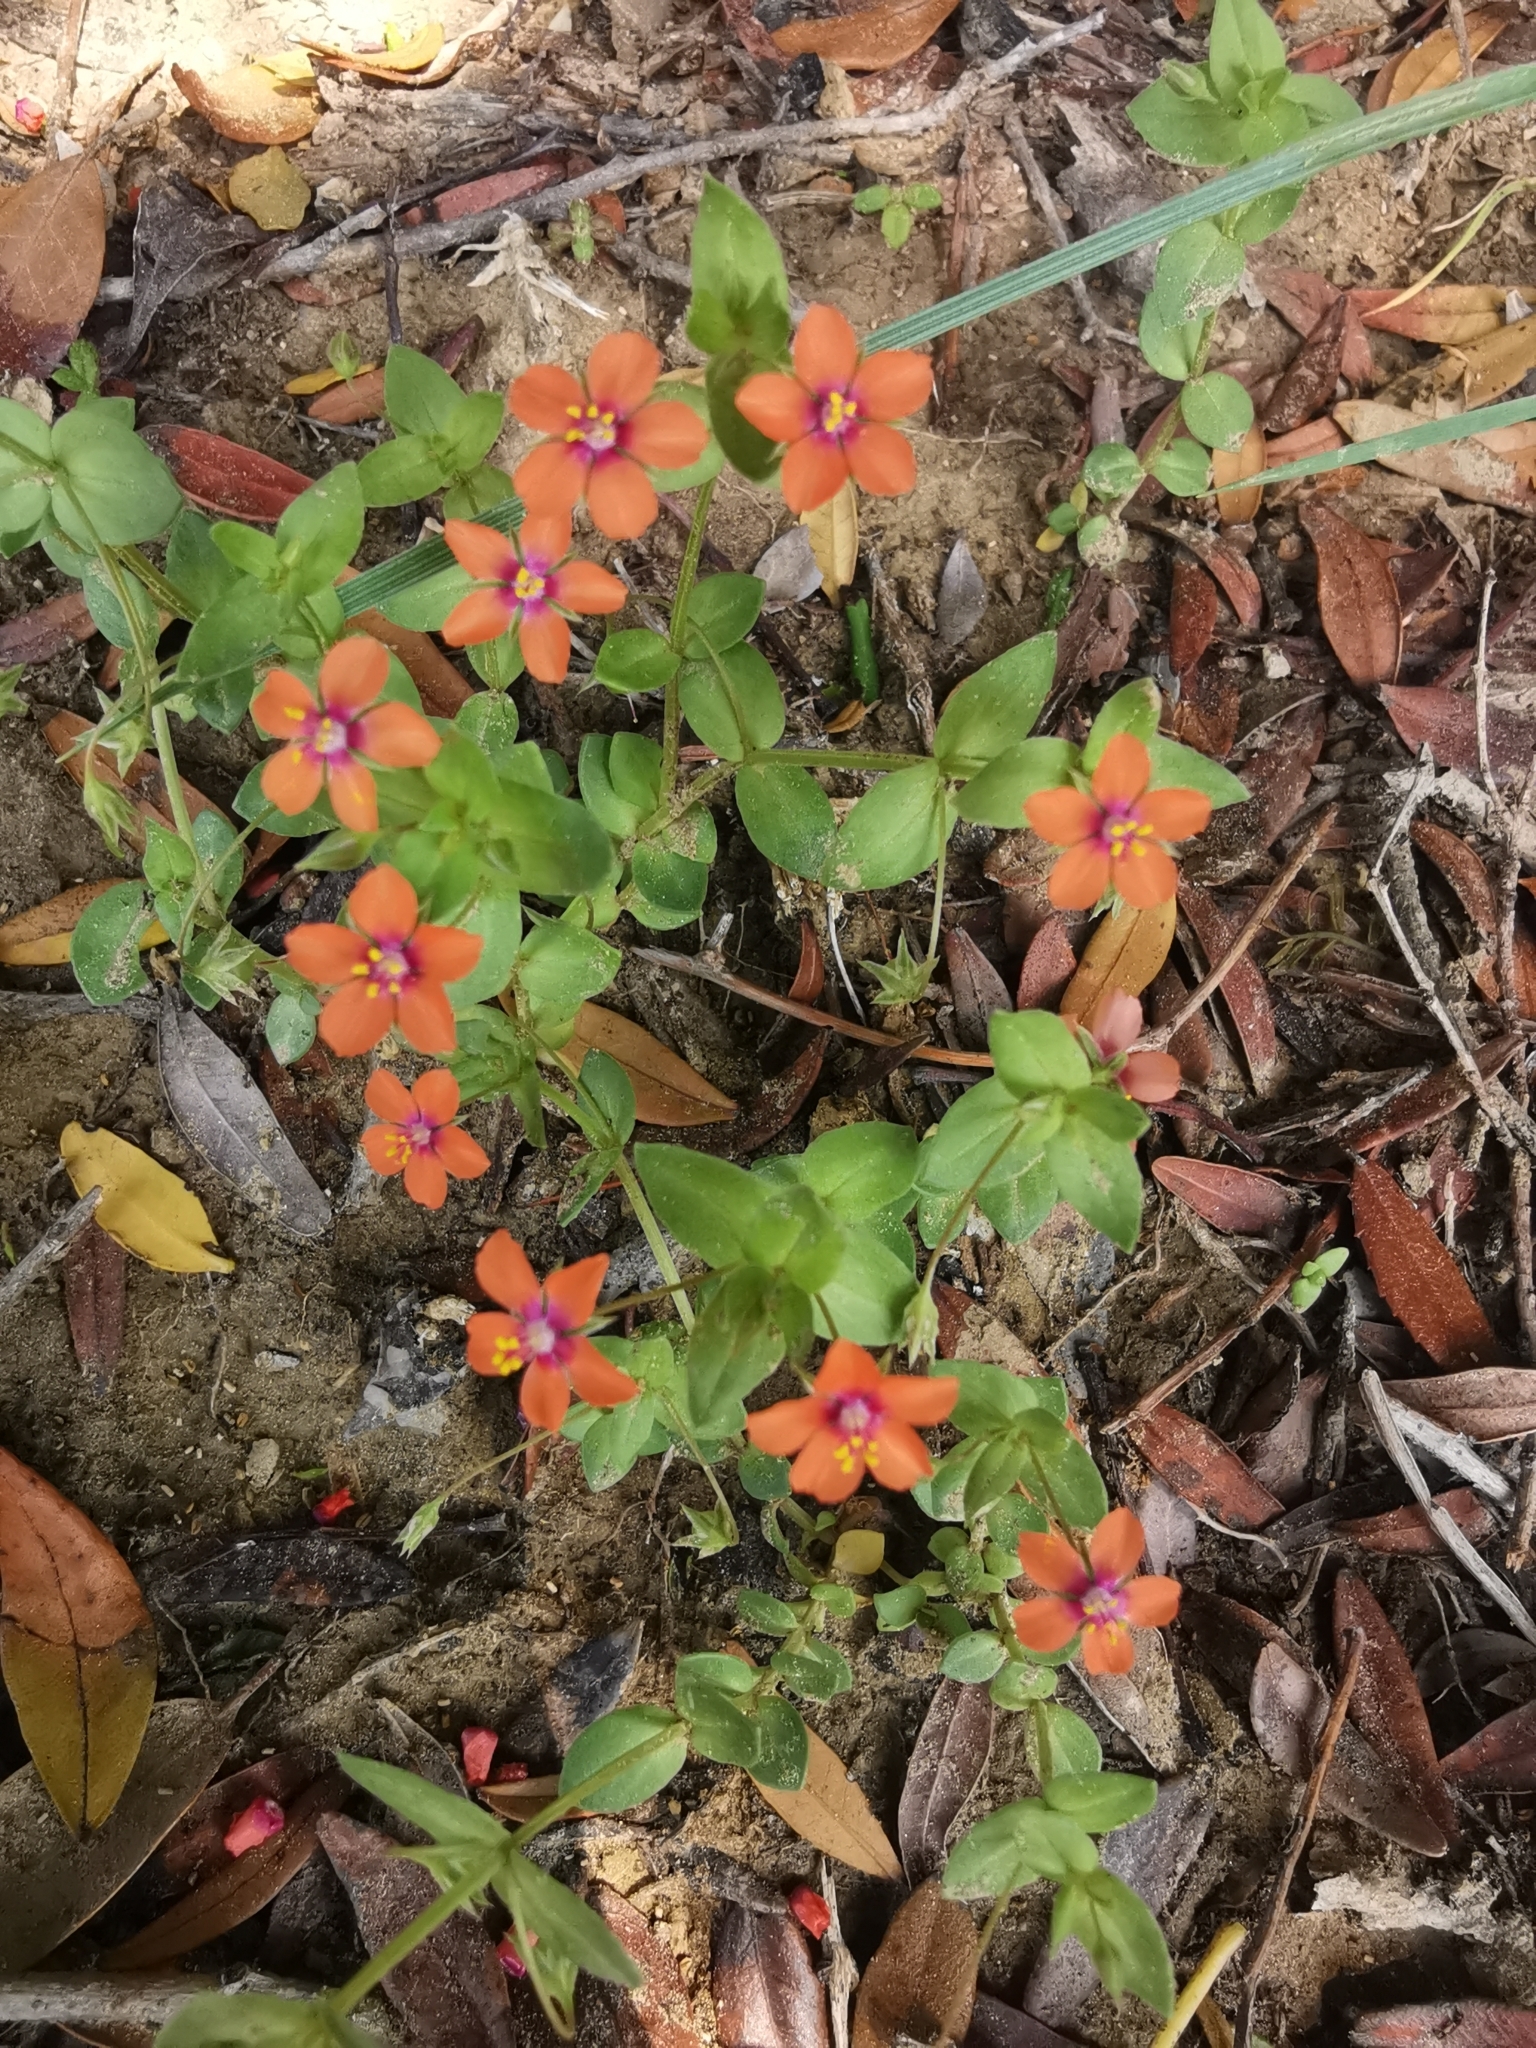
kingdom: Plantae
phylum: Tracheophyta
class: Magnoliopsida
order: Ericales
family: Primulaceae
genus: Lysimachia
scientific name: Lysimachia arvensis
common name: Scarlet pimpernel
